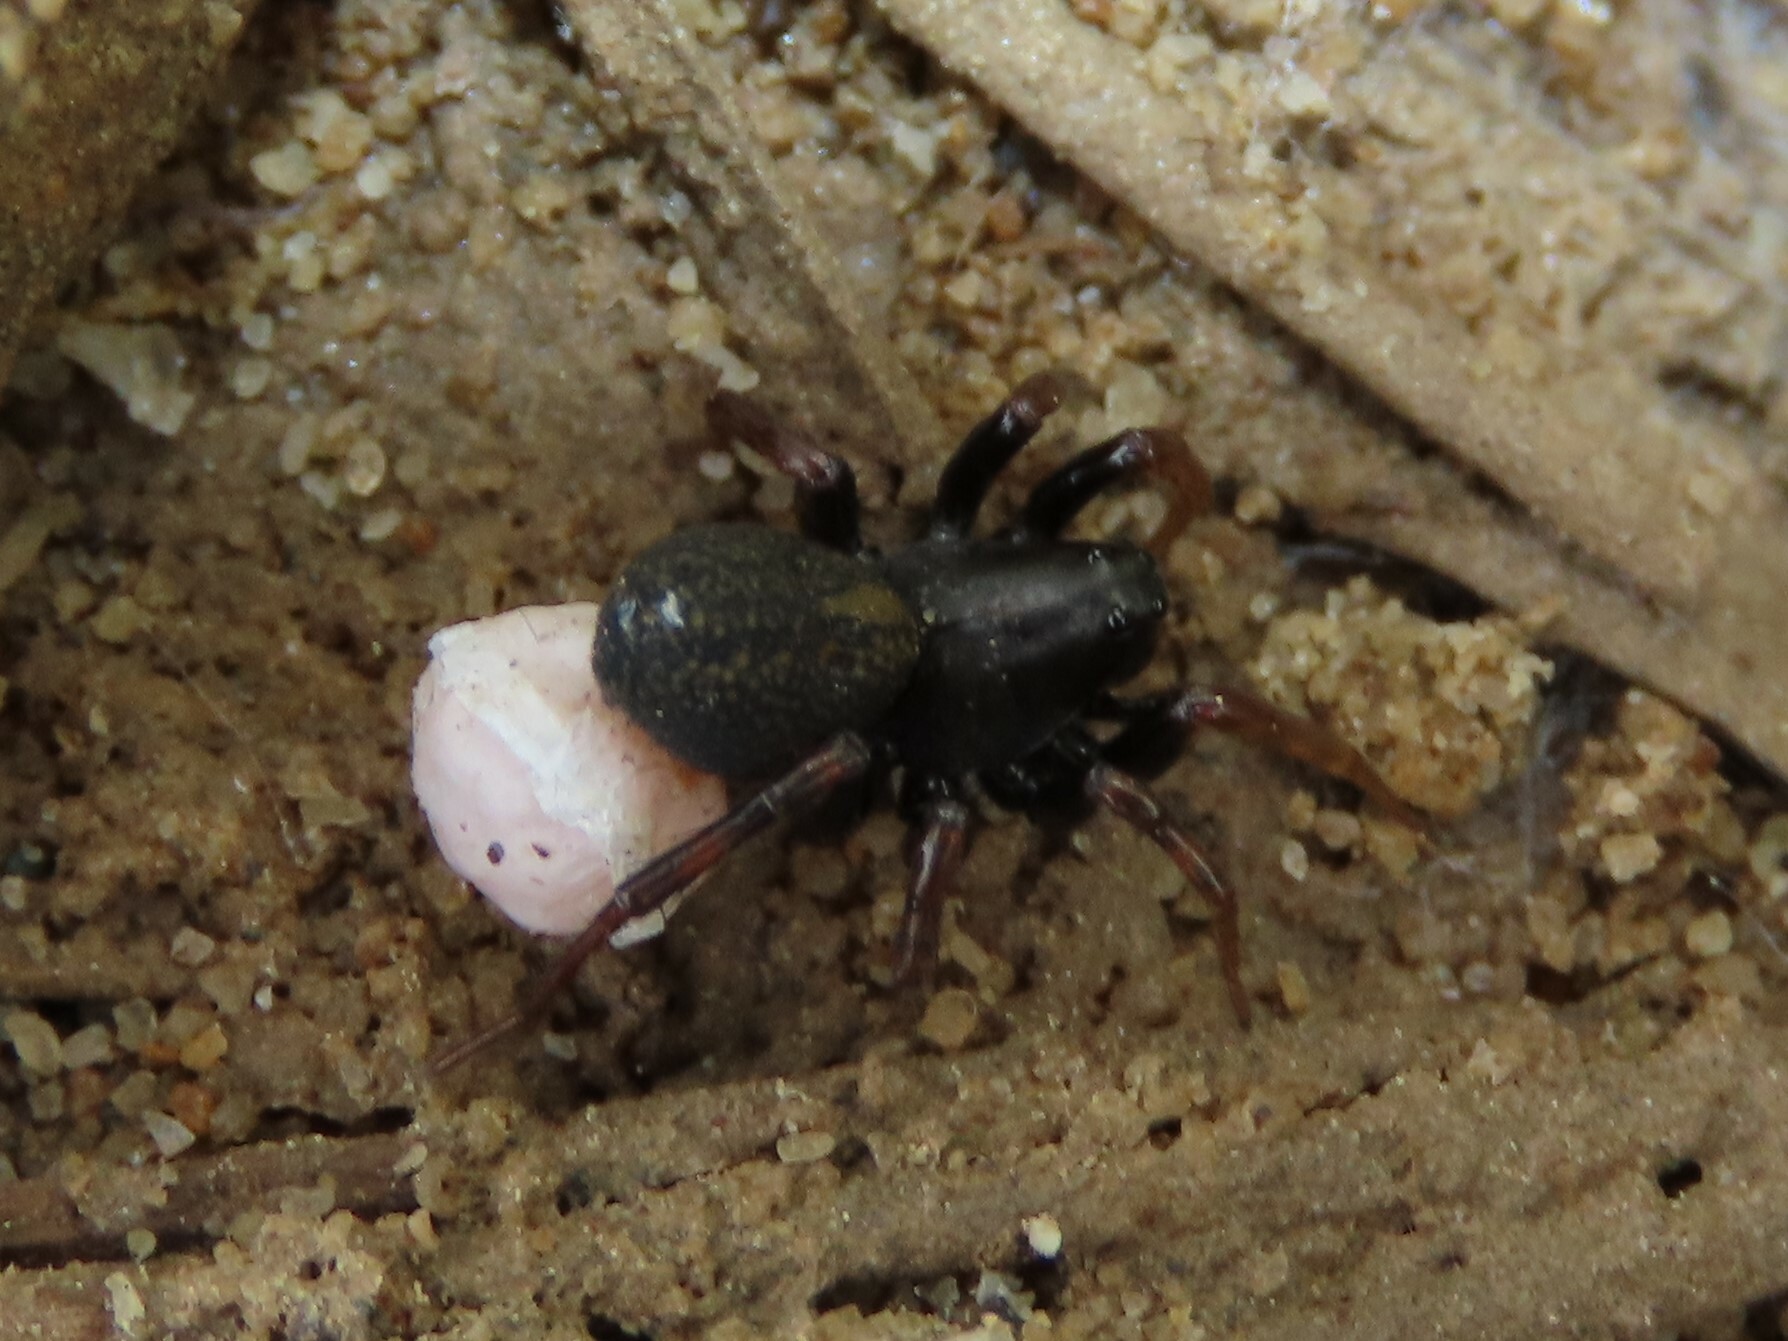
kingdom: Animalia
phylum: Arthropoda
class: Arachnida
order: Araneae
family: Lycosidae
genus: Allocosa
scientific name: Allocosa funerea
